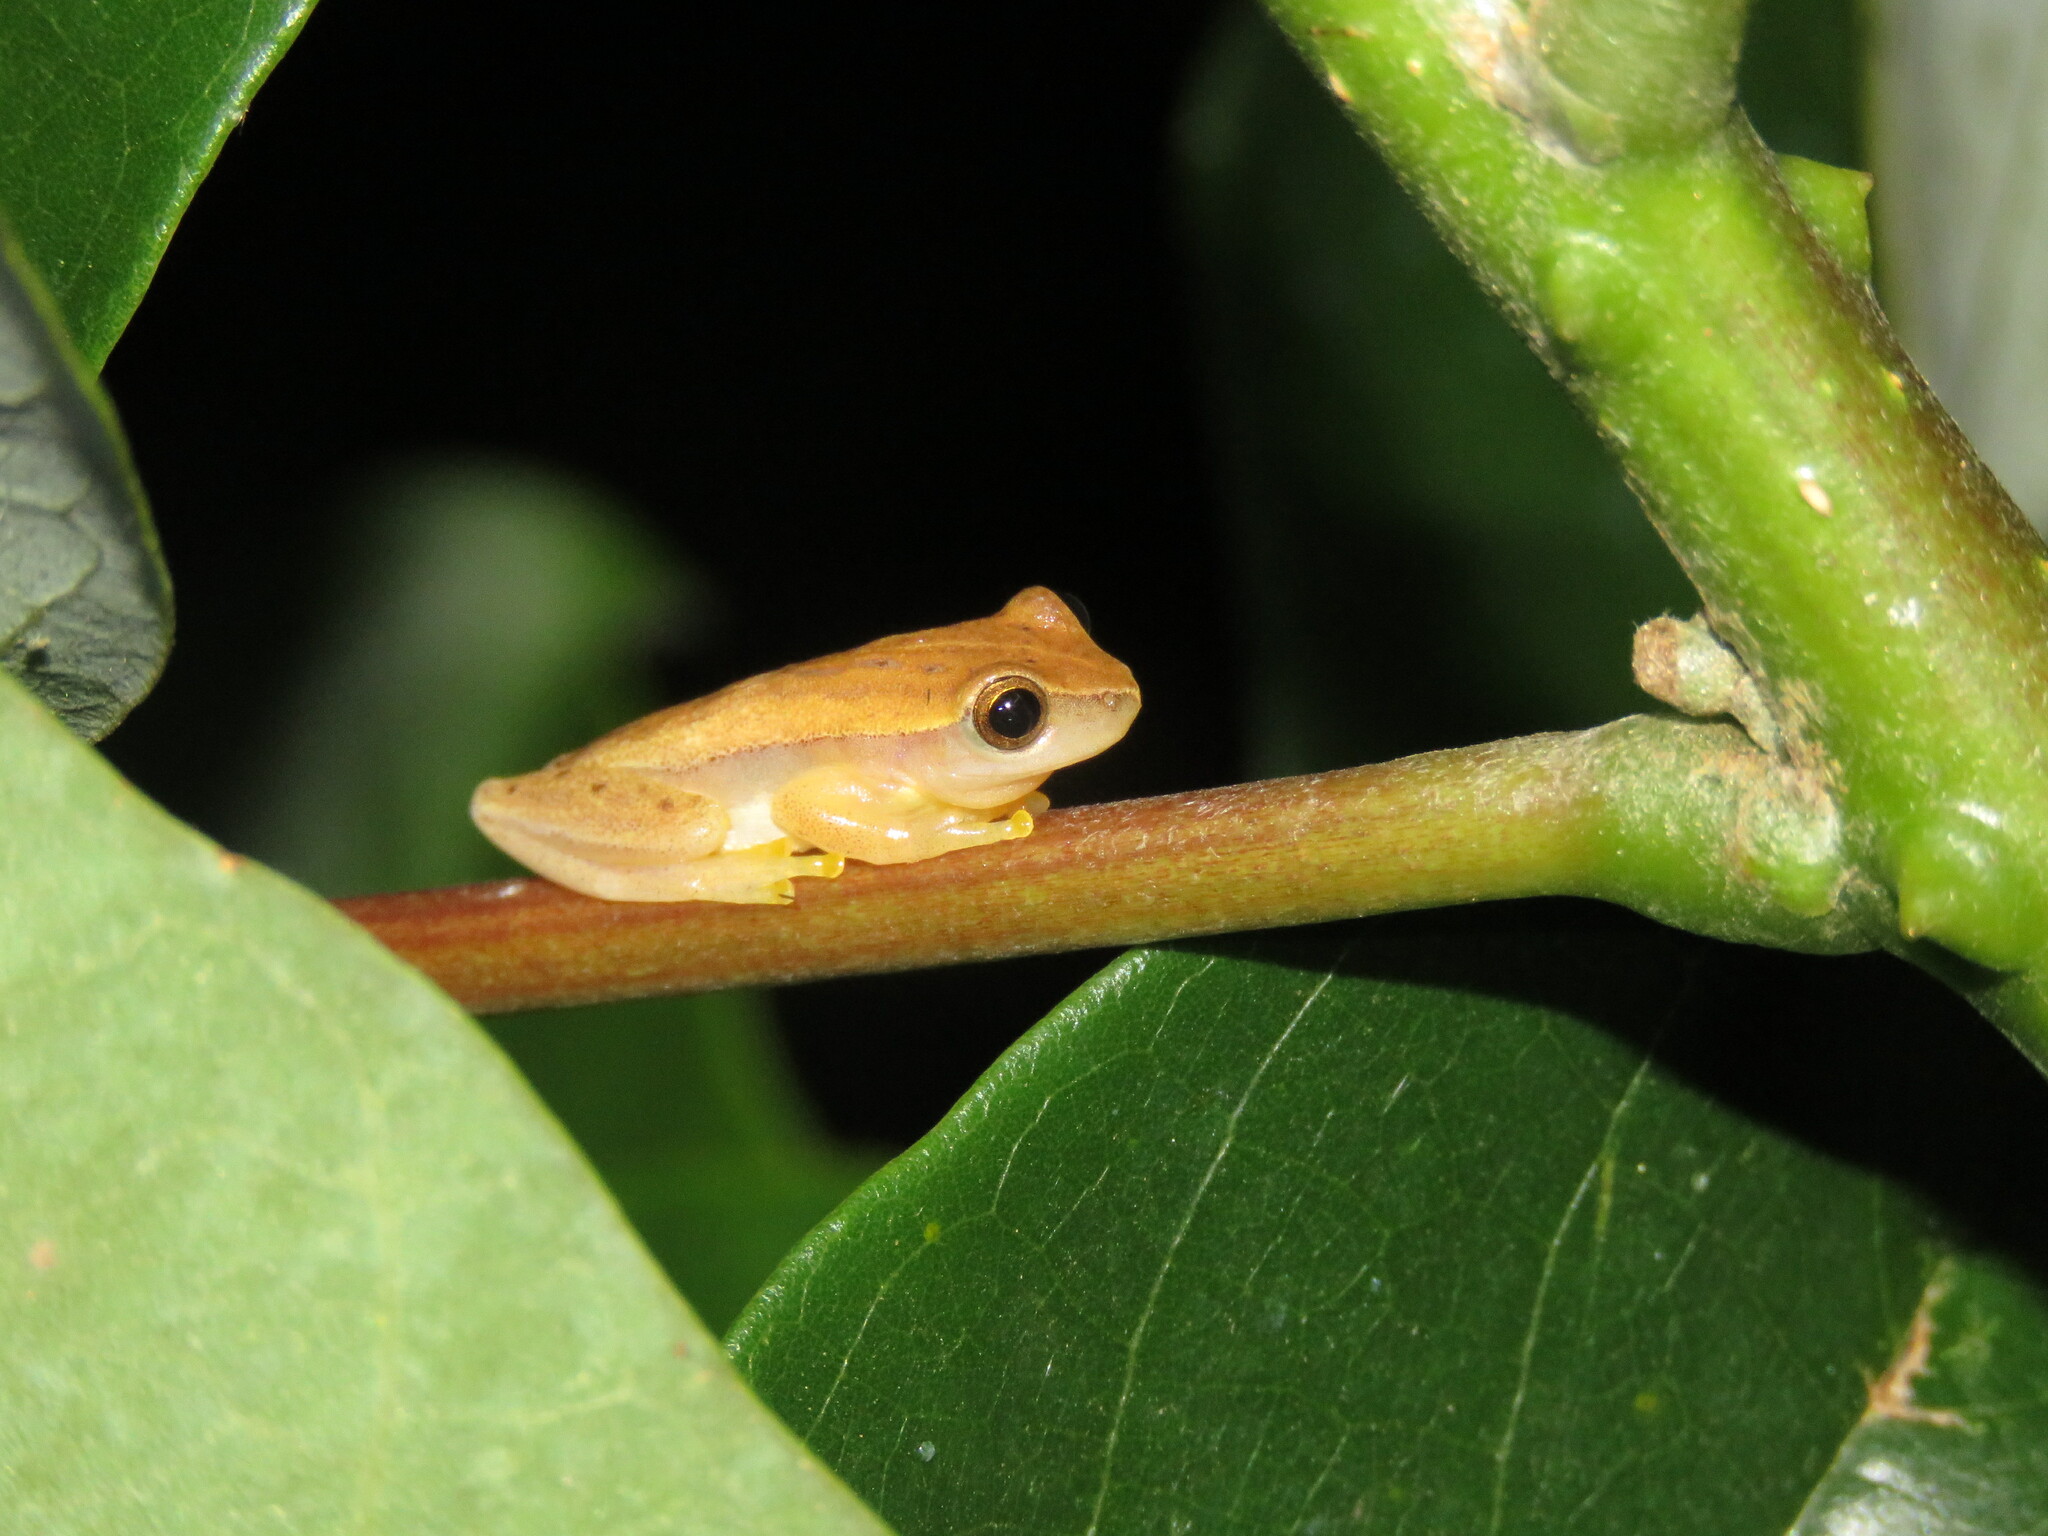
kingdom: Animalia
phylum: Chordata
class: Amphibia
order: Anura
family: Hylidae
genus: Dendropsophus
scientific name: Dendropsophus walfordi
